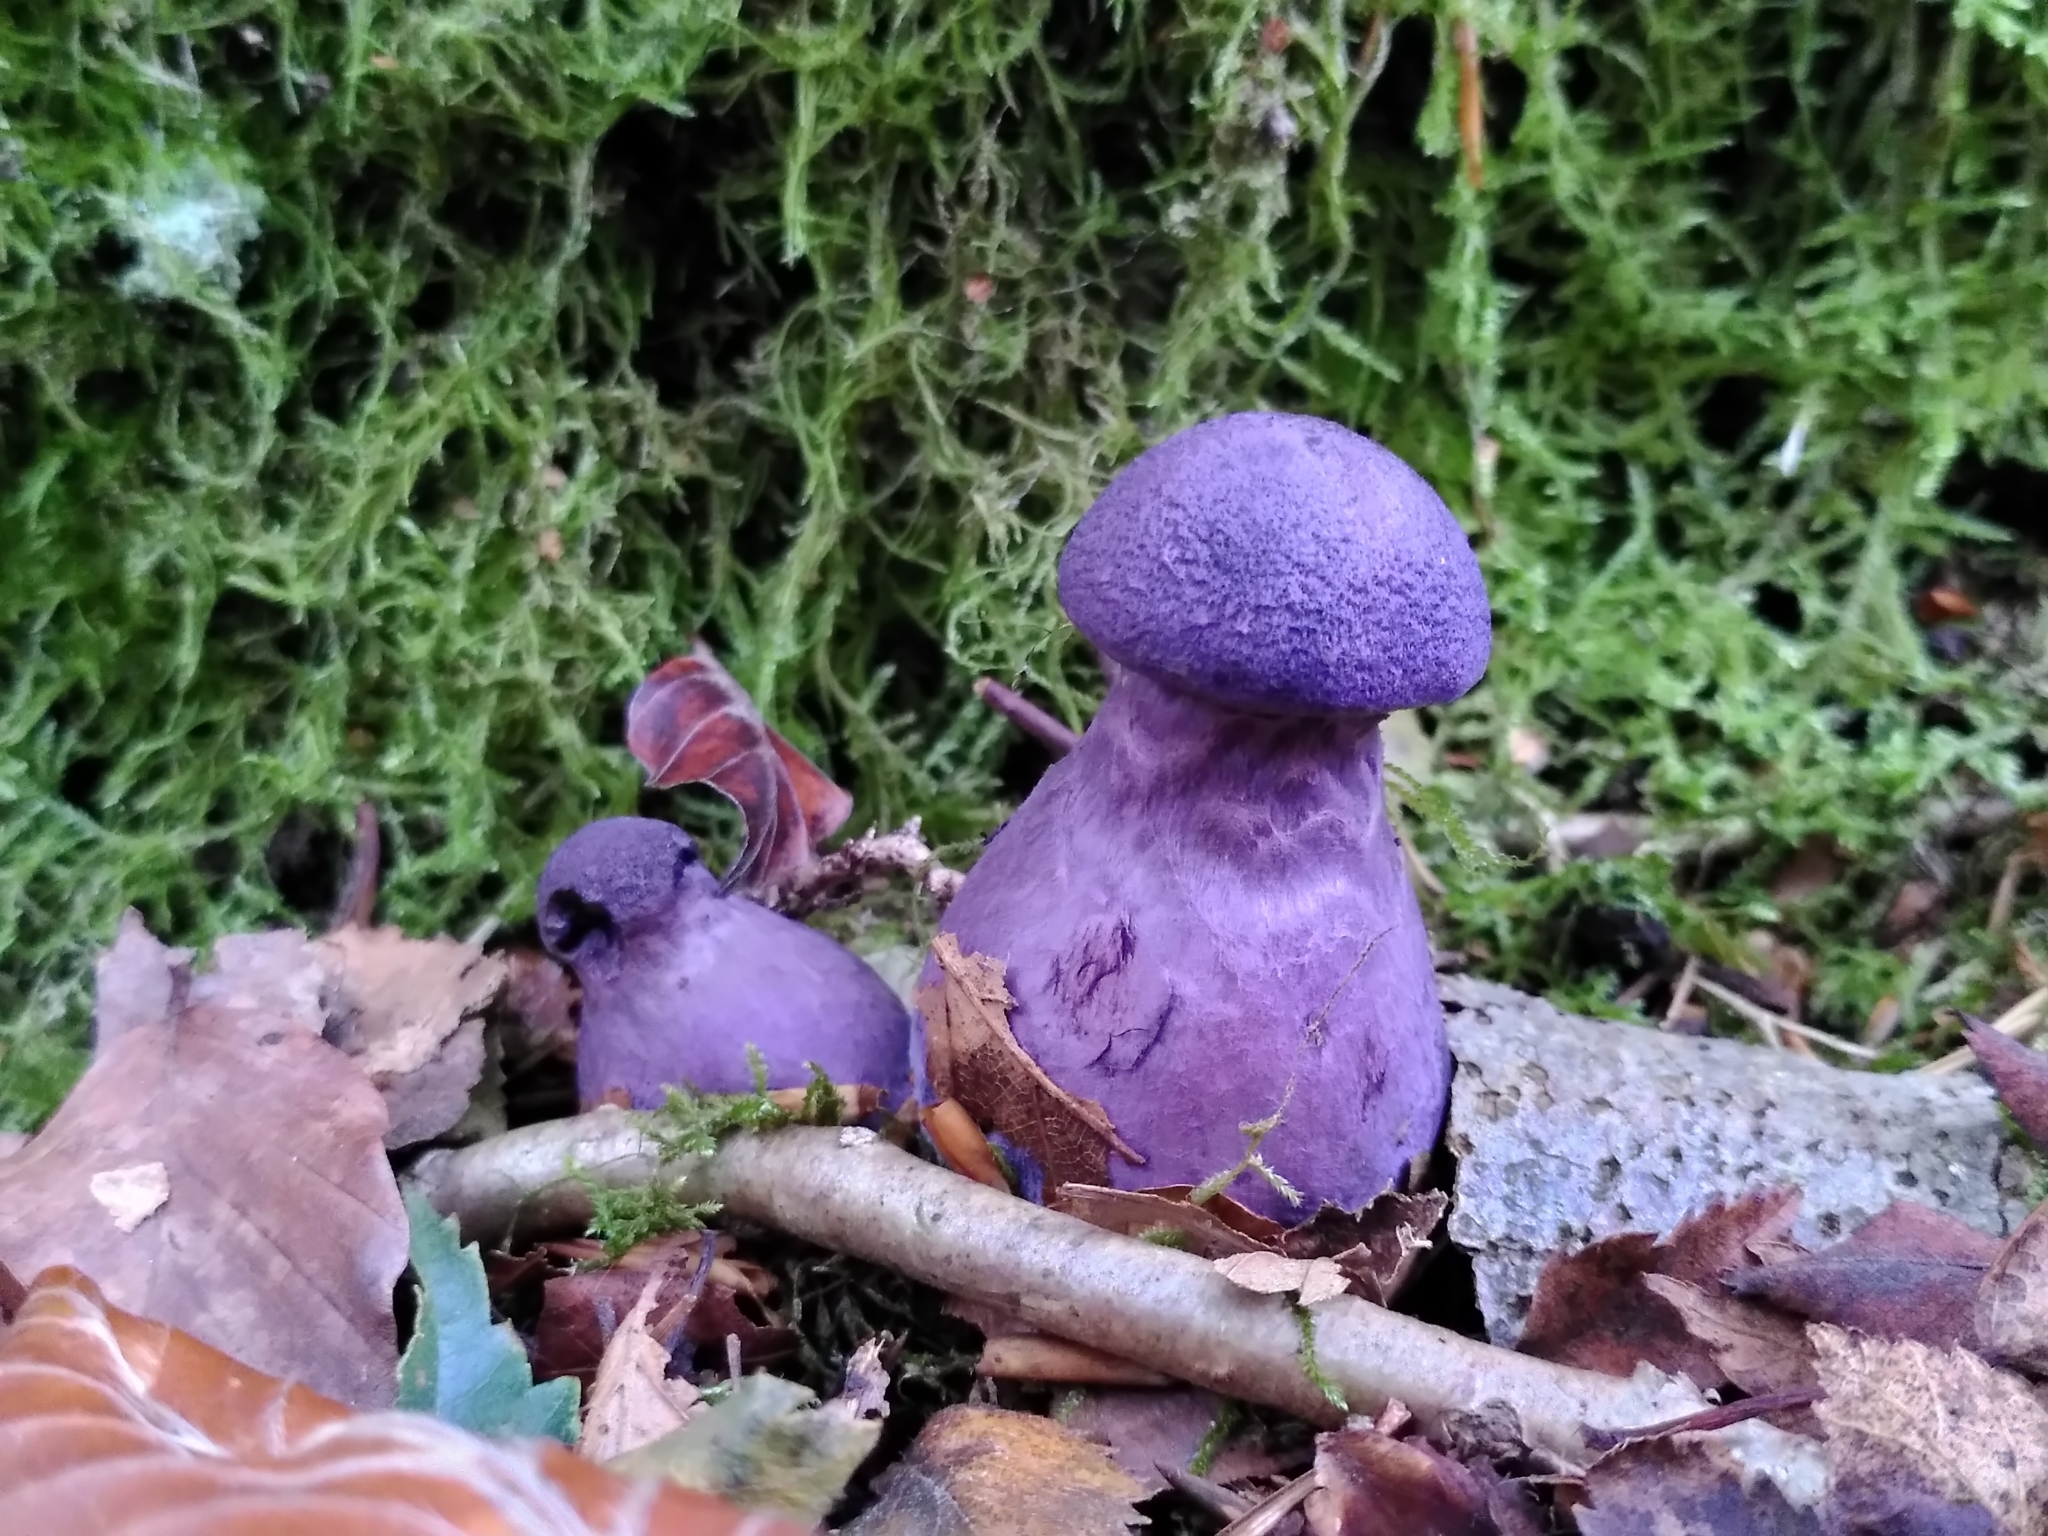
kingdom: Fungi
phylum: Basidiomycota
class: Agaricomycetes
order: Agaricales
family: Cortinariaceae
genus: Cortinarius
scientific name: Cortinarius violaceus
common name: Violet webcap
